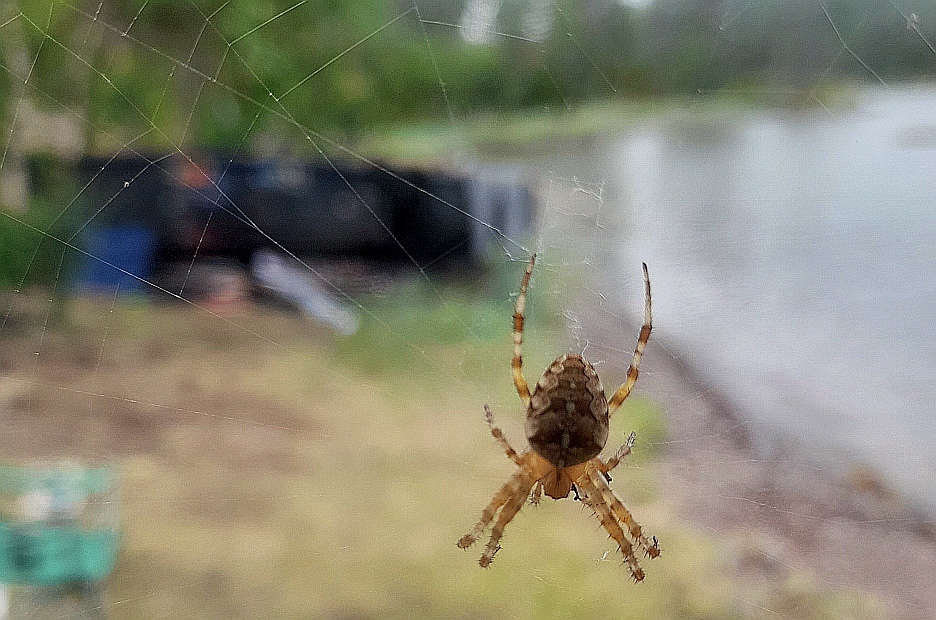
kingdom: Animalia
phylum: Arthropoda
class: Arachnida
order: Araneae
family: Araneidae
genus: Araneus
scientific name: Araneus diadematus
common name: Cross orbweaver
